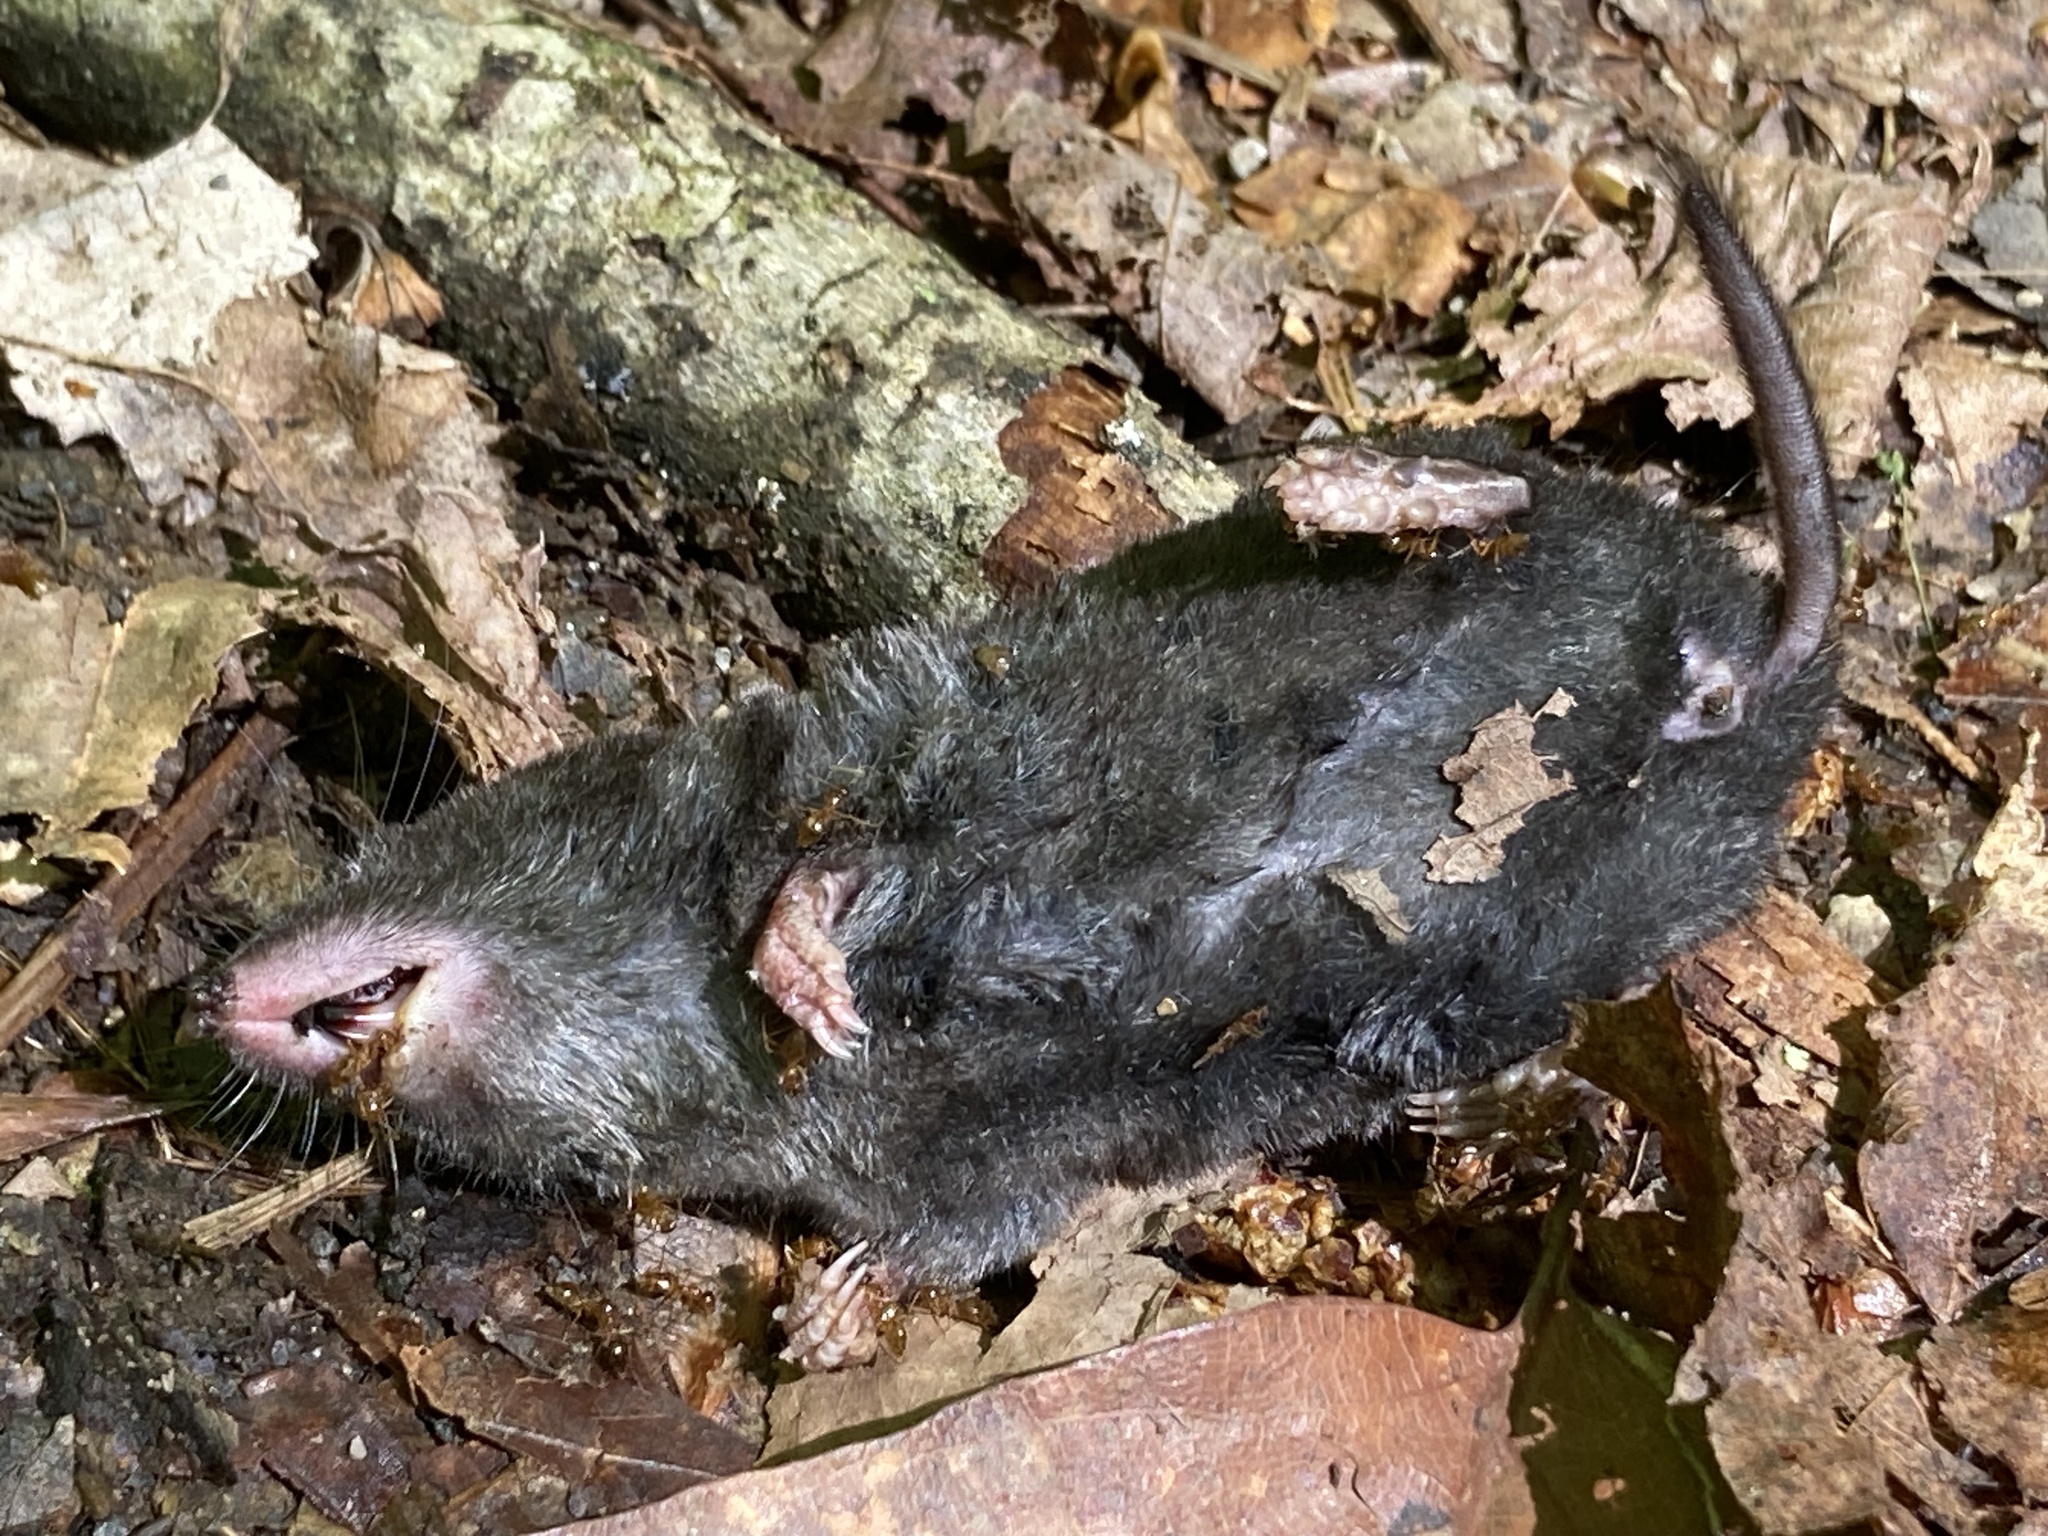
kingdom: Animalia
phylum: Chordata
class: Mammalia
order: Soricomorpha
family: Soricidae
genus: Blarina
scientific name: Blarina brevicauda
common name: Northern short-tailed shrew
